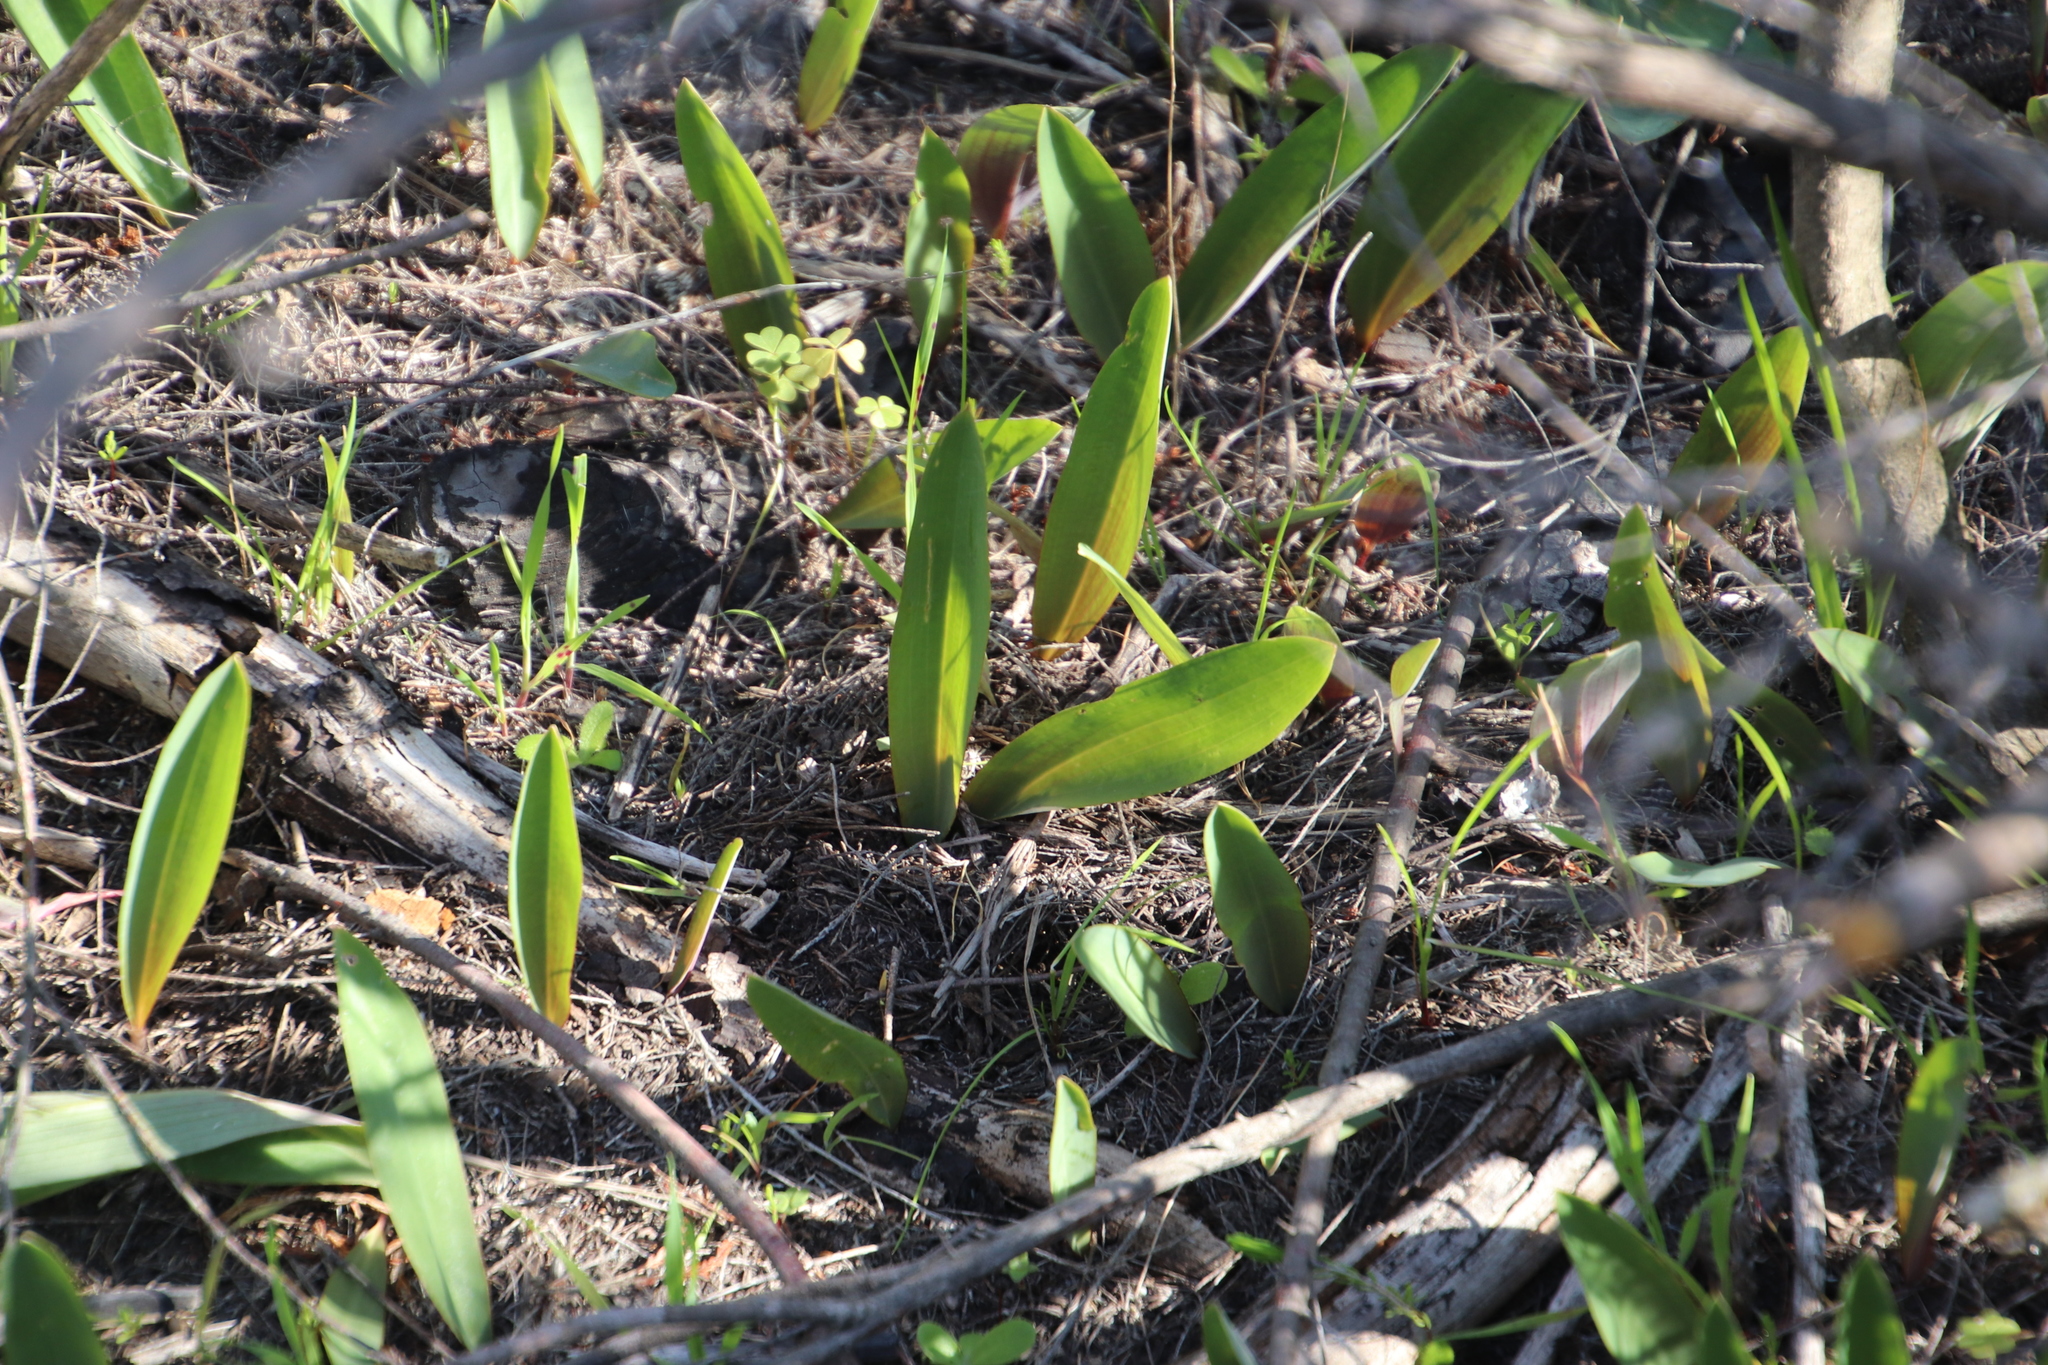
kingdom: Plantae
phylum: Tracheophyta
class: Liliopsida
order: Asparagales
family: Asparagaceae
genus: Eriospermum
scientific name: Eriospermum lanceifolium
